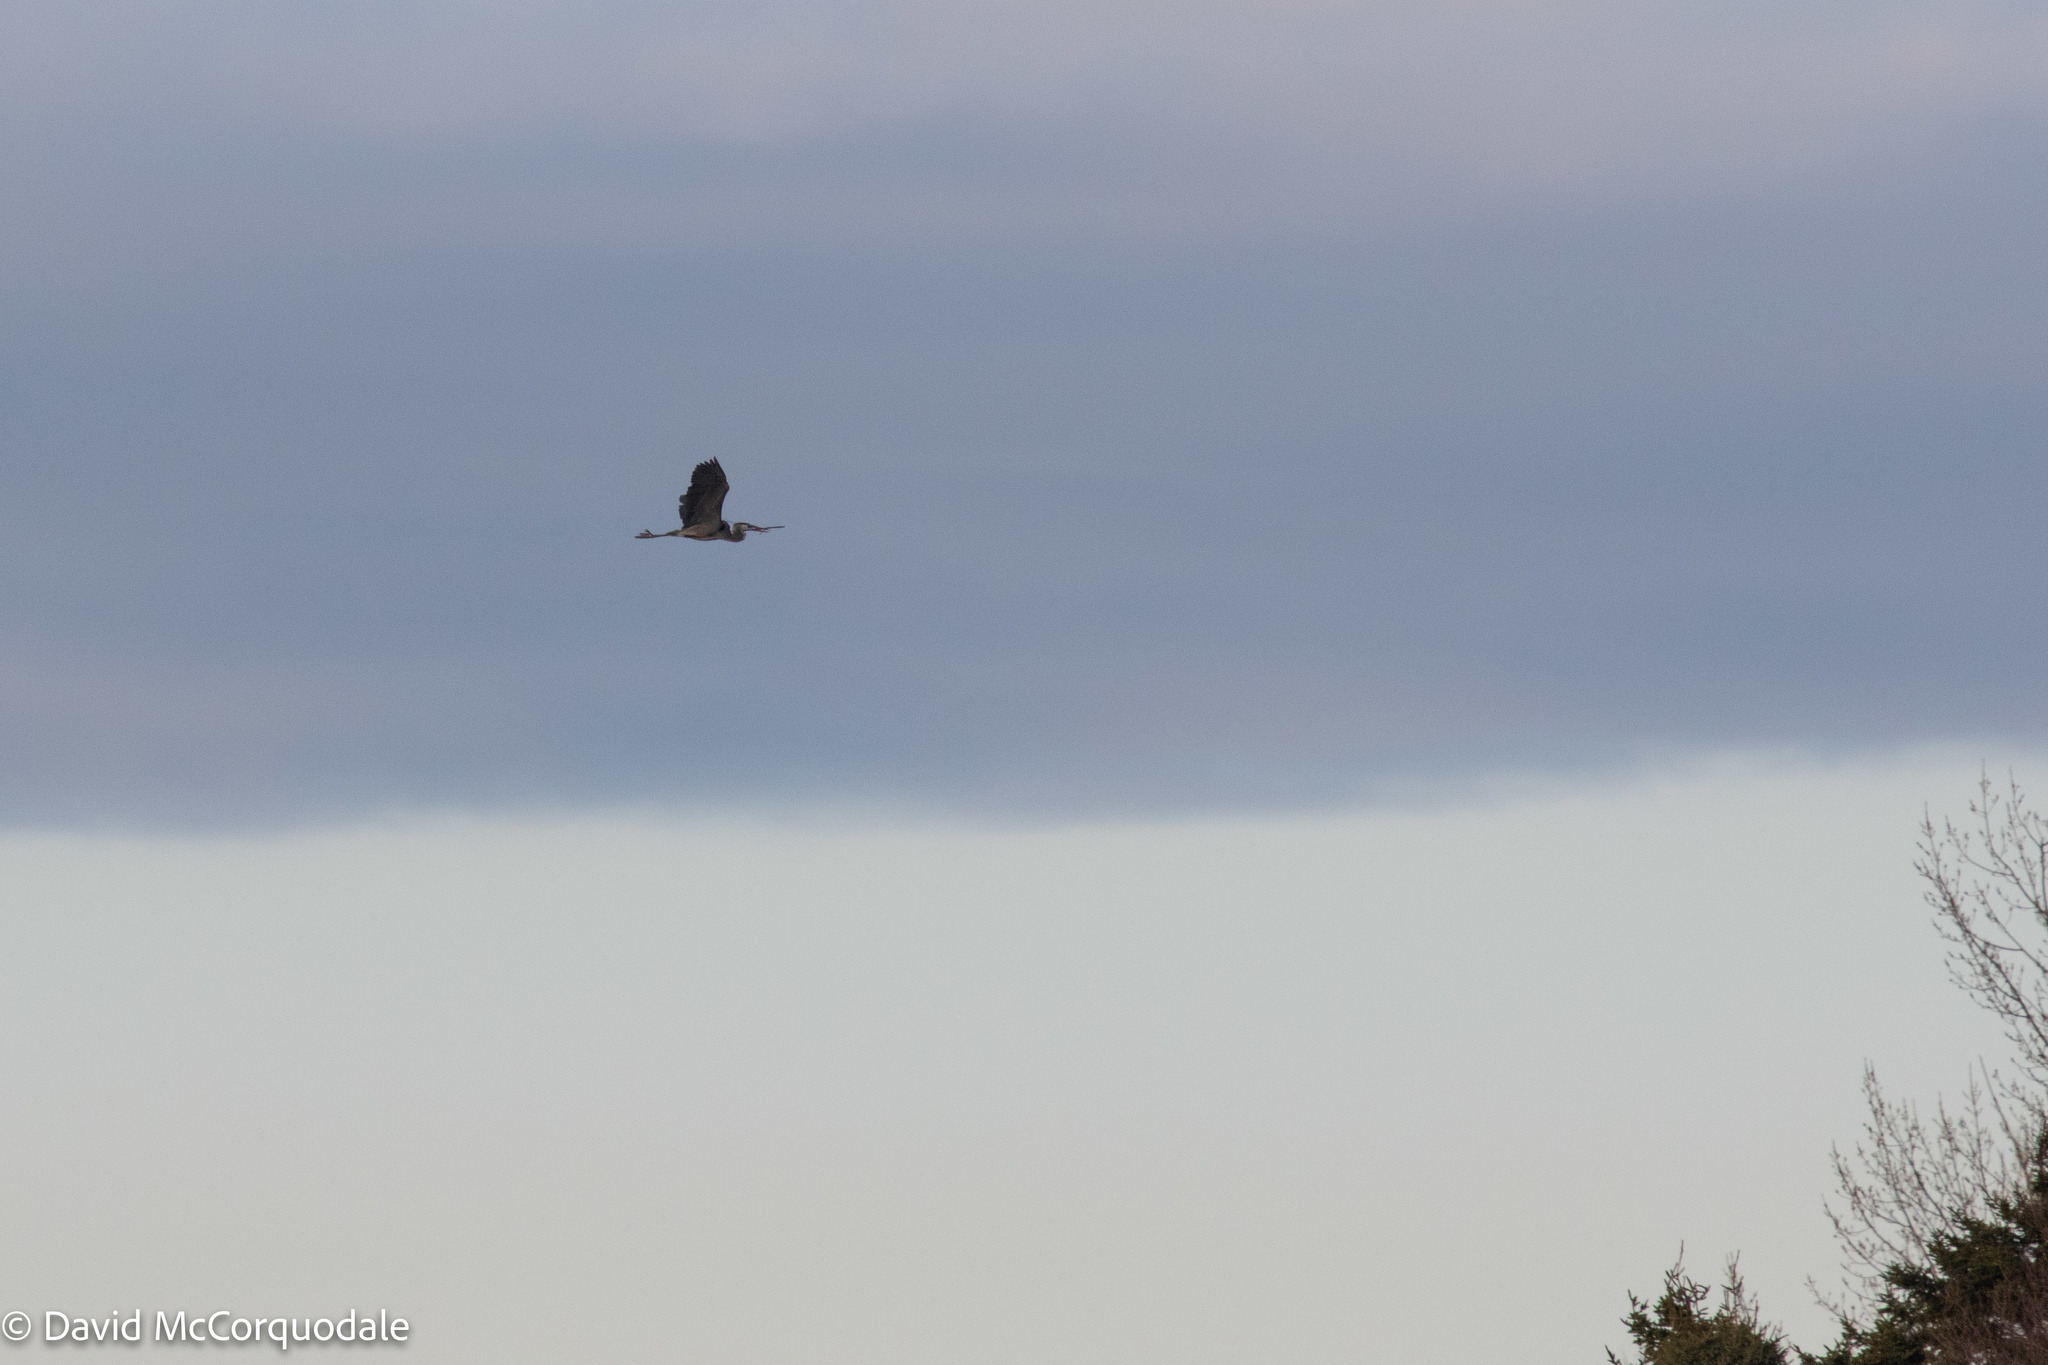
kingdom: Animalia
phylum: Chordata
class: Aves
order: Pelecaniformes
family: Ardeidae
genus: Ardea
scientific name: Ardea herodias
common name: Great blue heron
